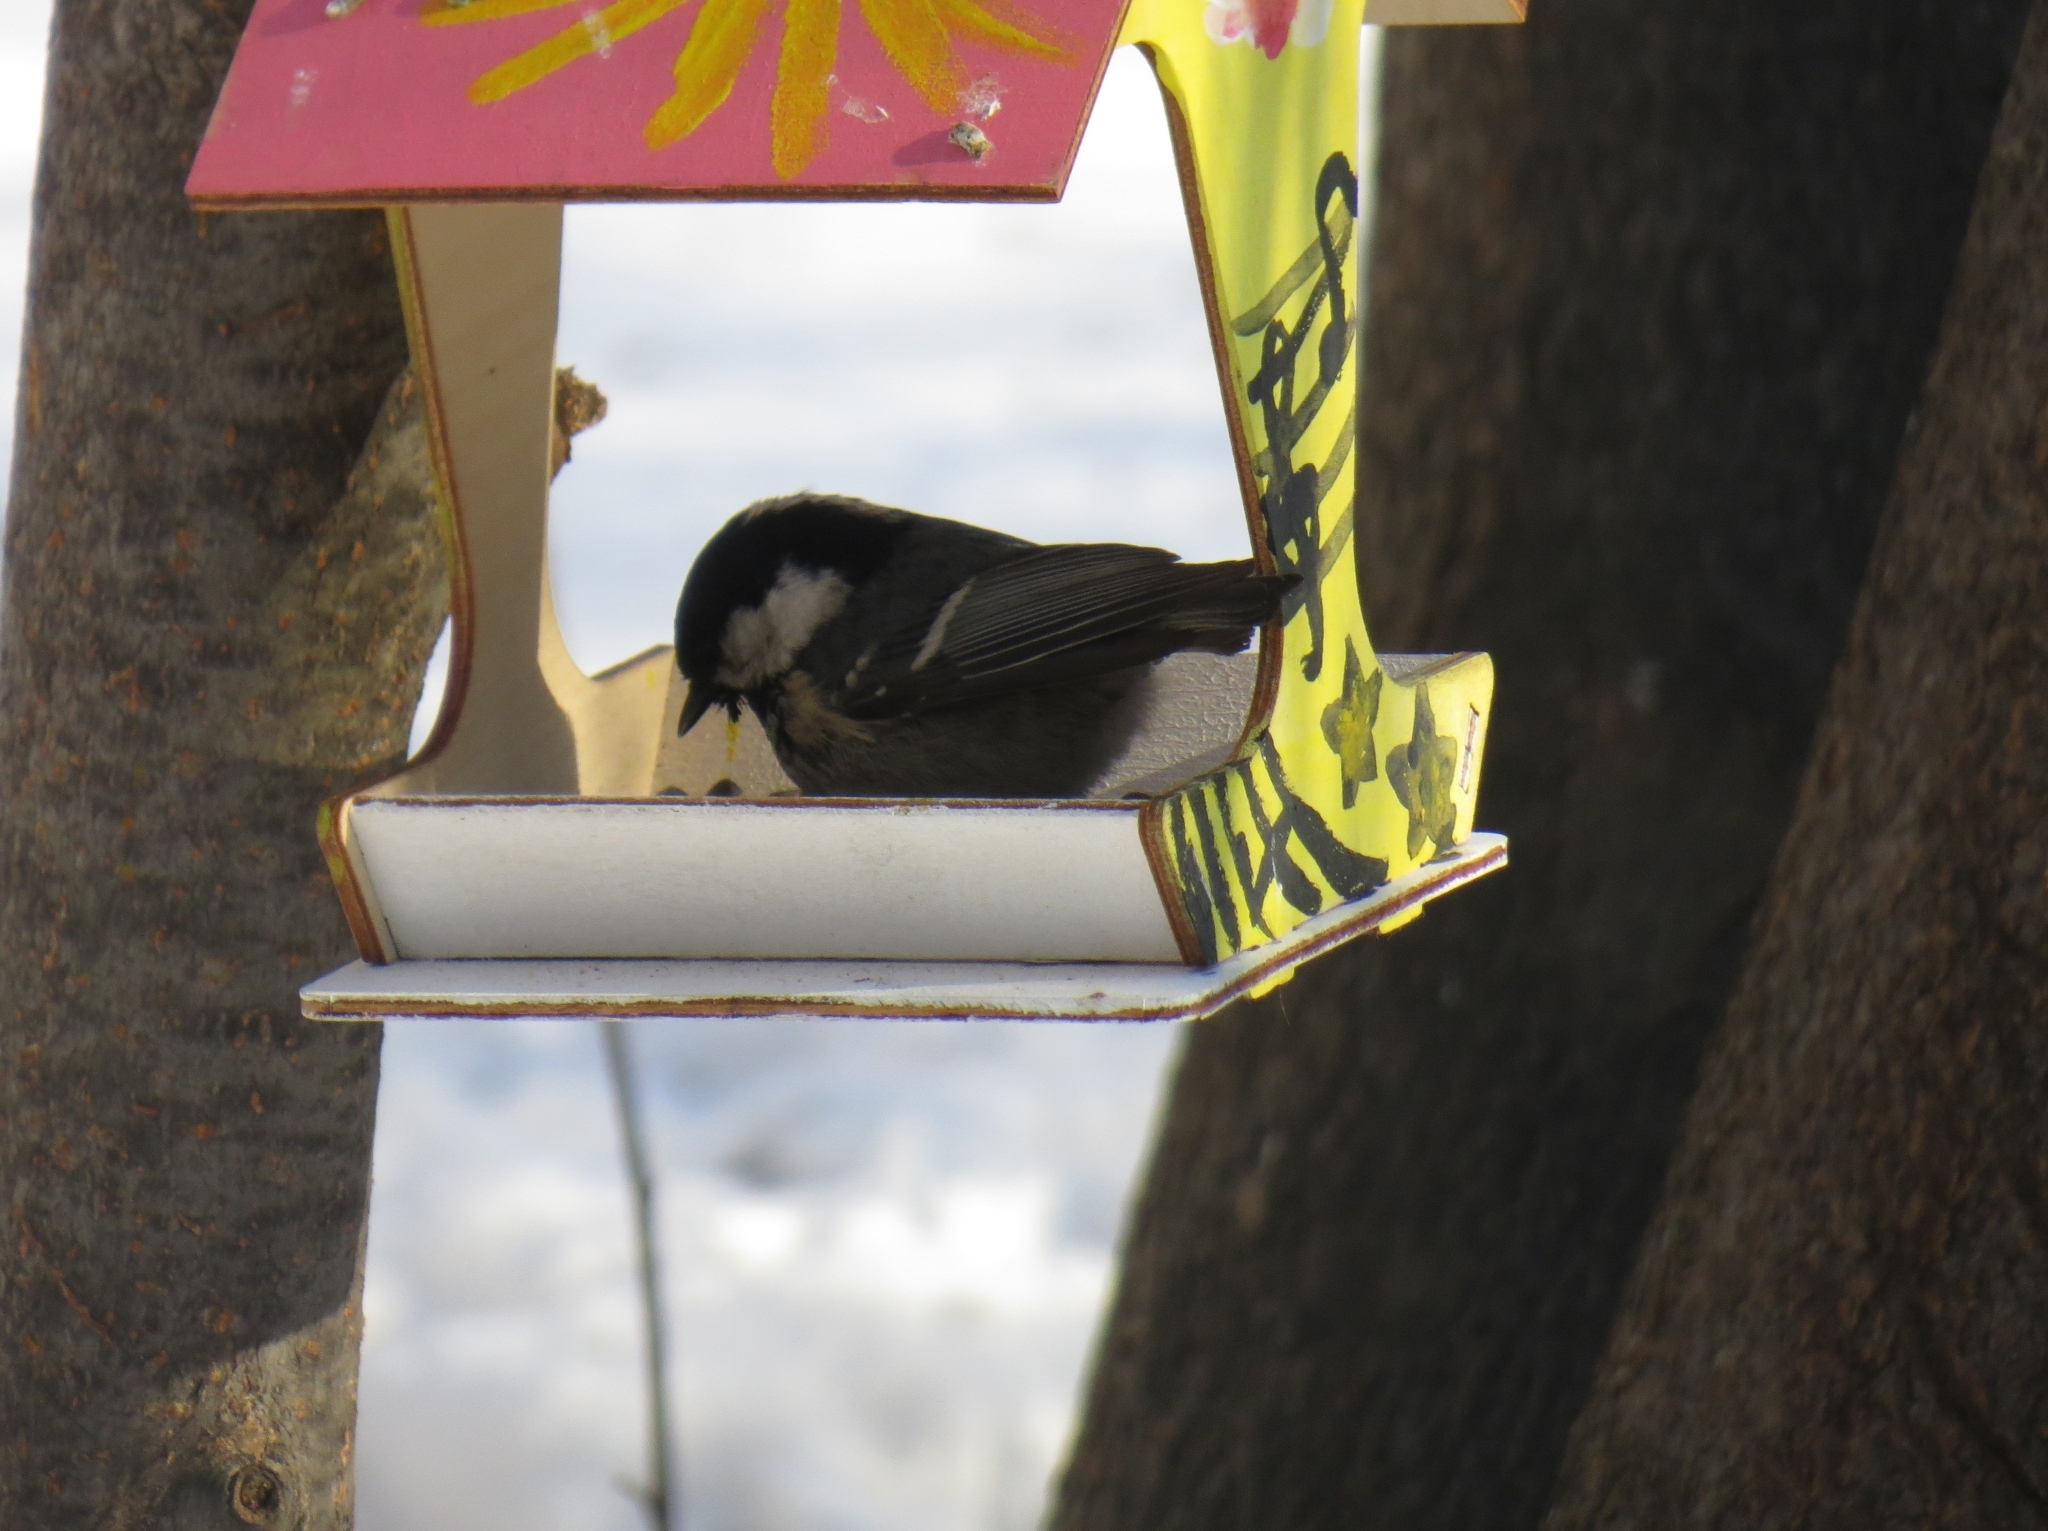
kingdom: Animalia
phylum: Chordata
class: Aves
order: Passeriformes
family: Paridae
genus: Periparus
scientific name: Periparus ater
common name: Coal tit
